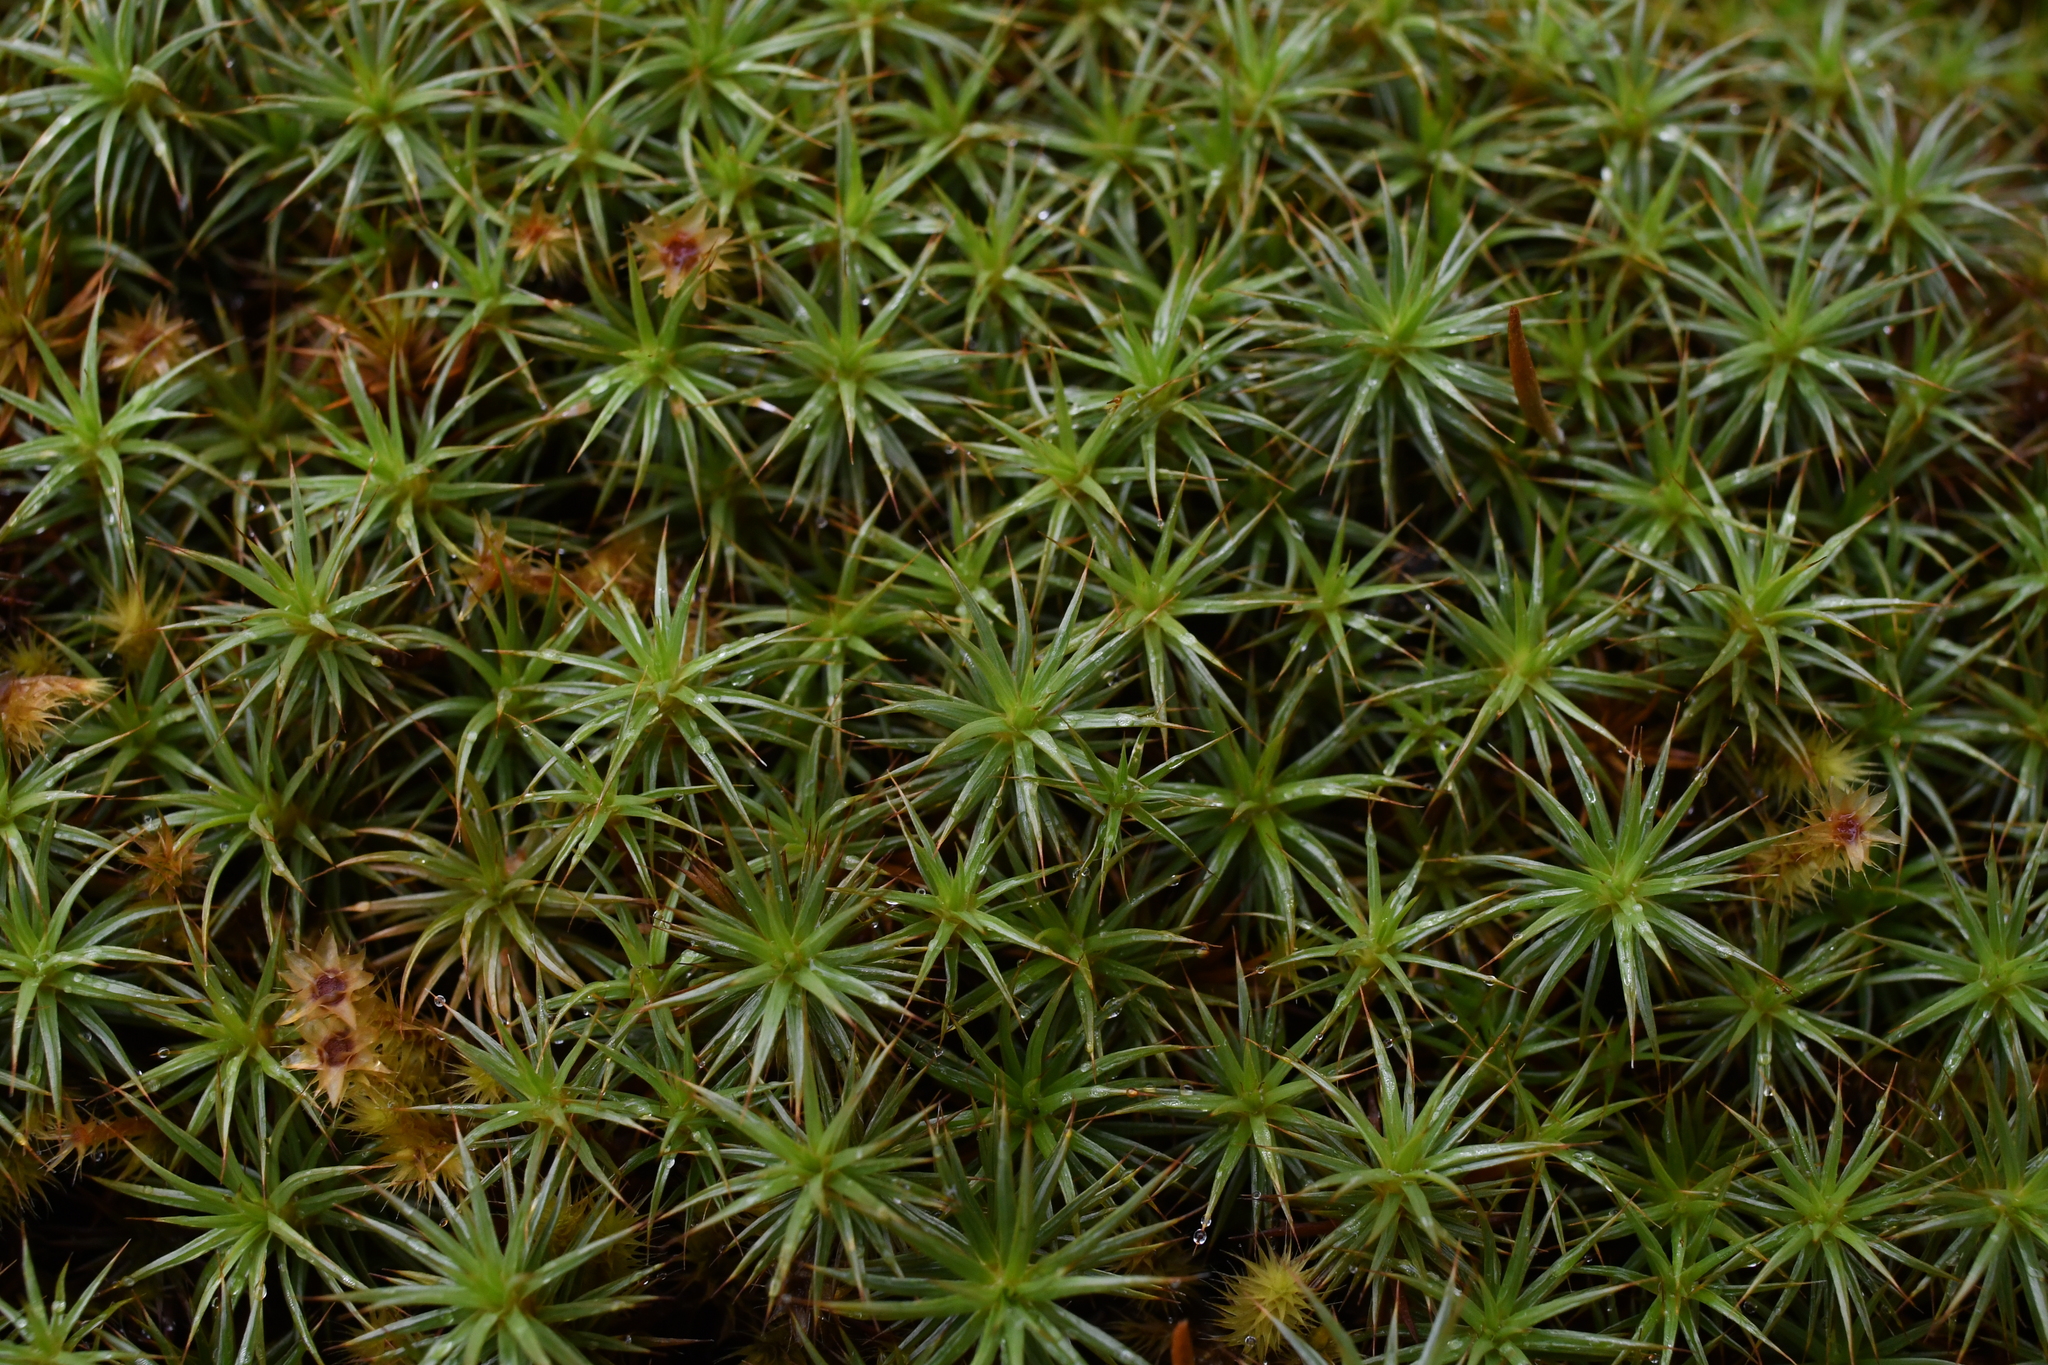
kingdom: Plantae
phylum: Bryophyta
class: Polytrichopsida
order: Polytrichales
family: Polytrichaceae
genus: Polytrichum
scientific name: Polytrichum juniperinum
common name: Juniper haircap moss
